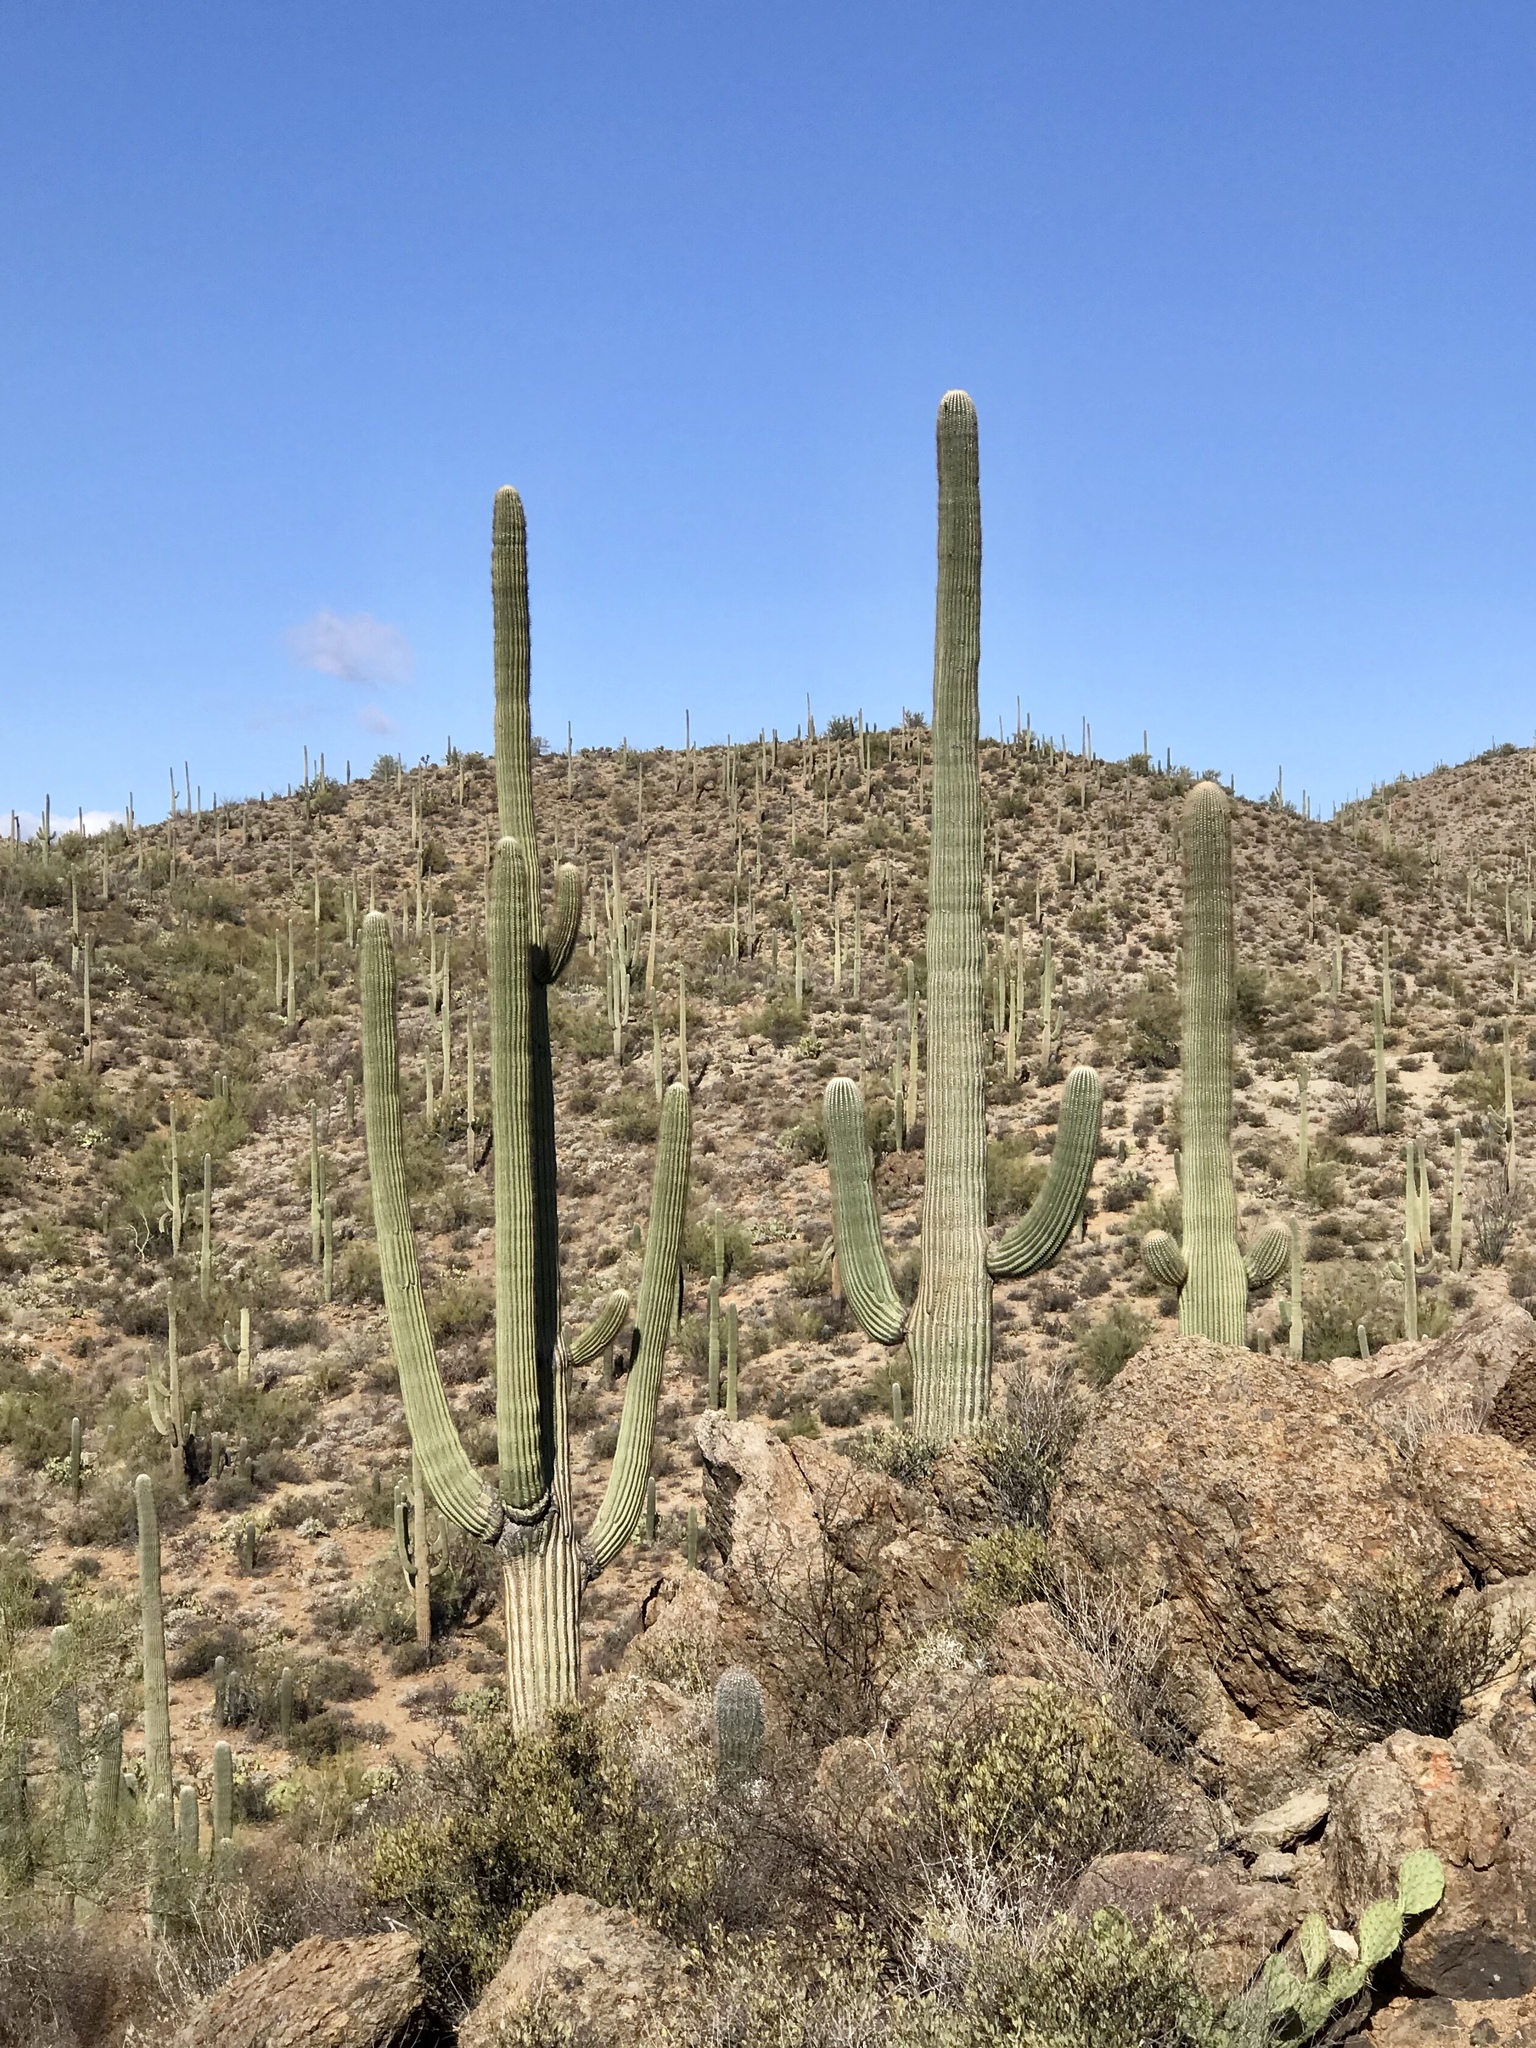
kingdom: Plantae
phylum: Tracheophyta
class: Magnoliopsida
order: Caryophyllales
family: Cactaceae
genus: Carnegiea
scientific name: Carnegiea gigantea
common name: Saguaro
